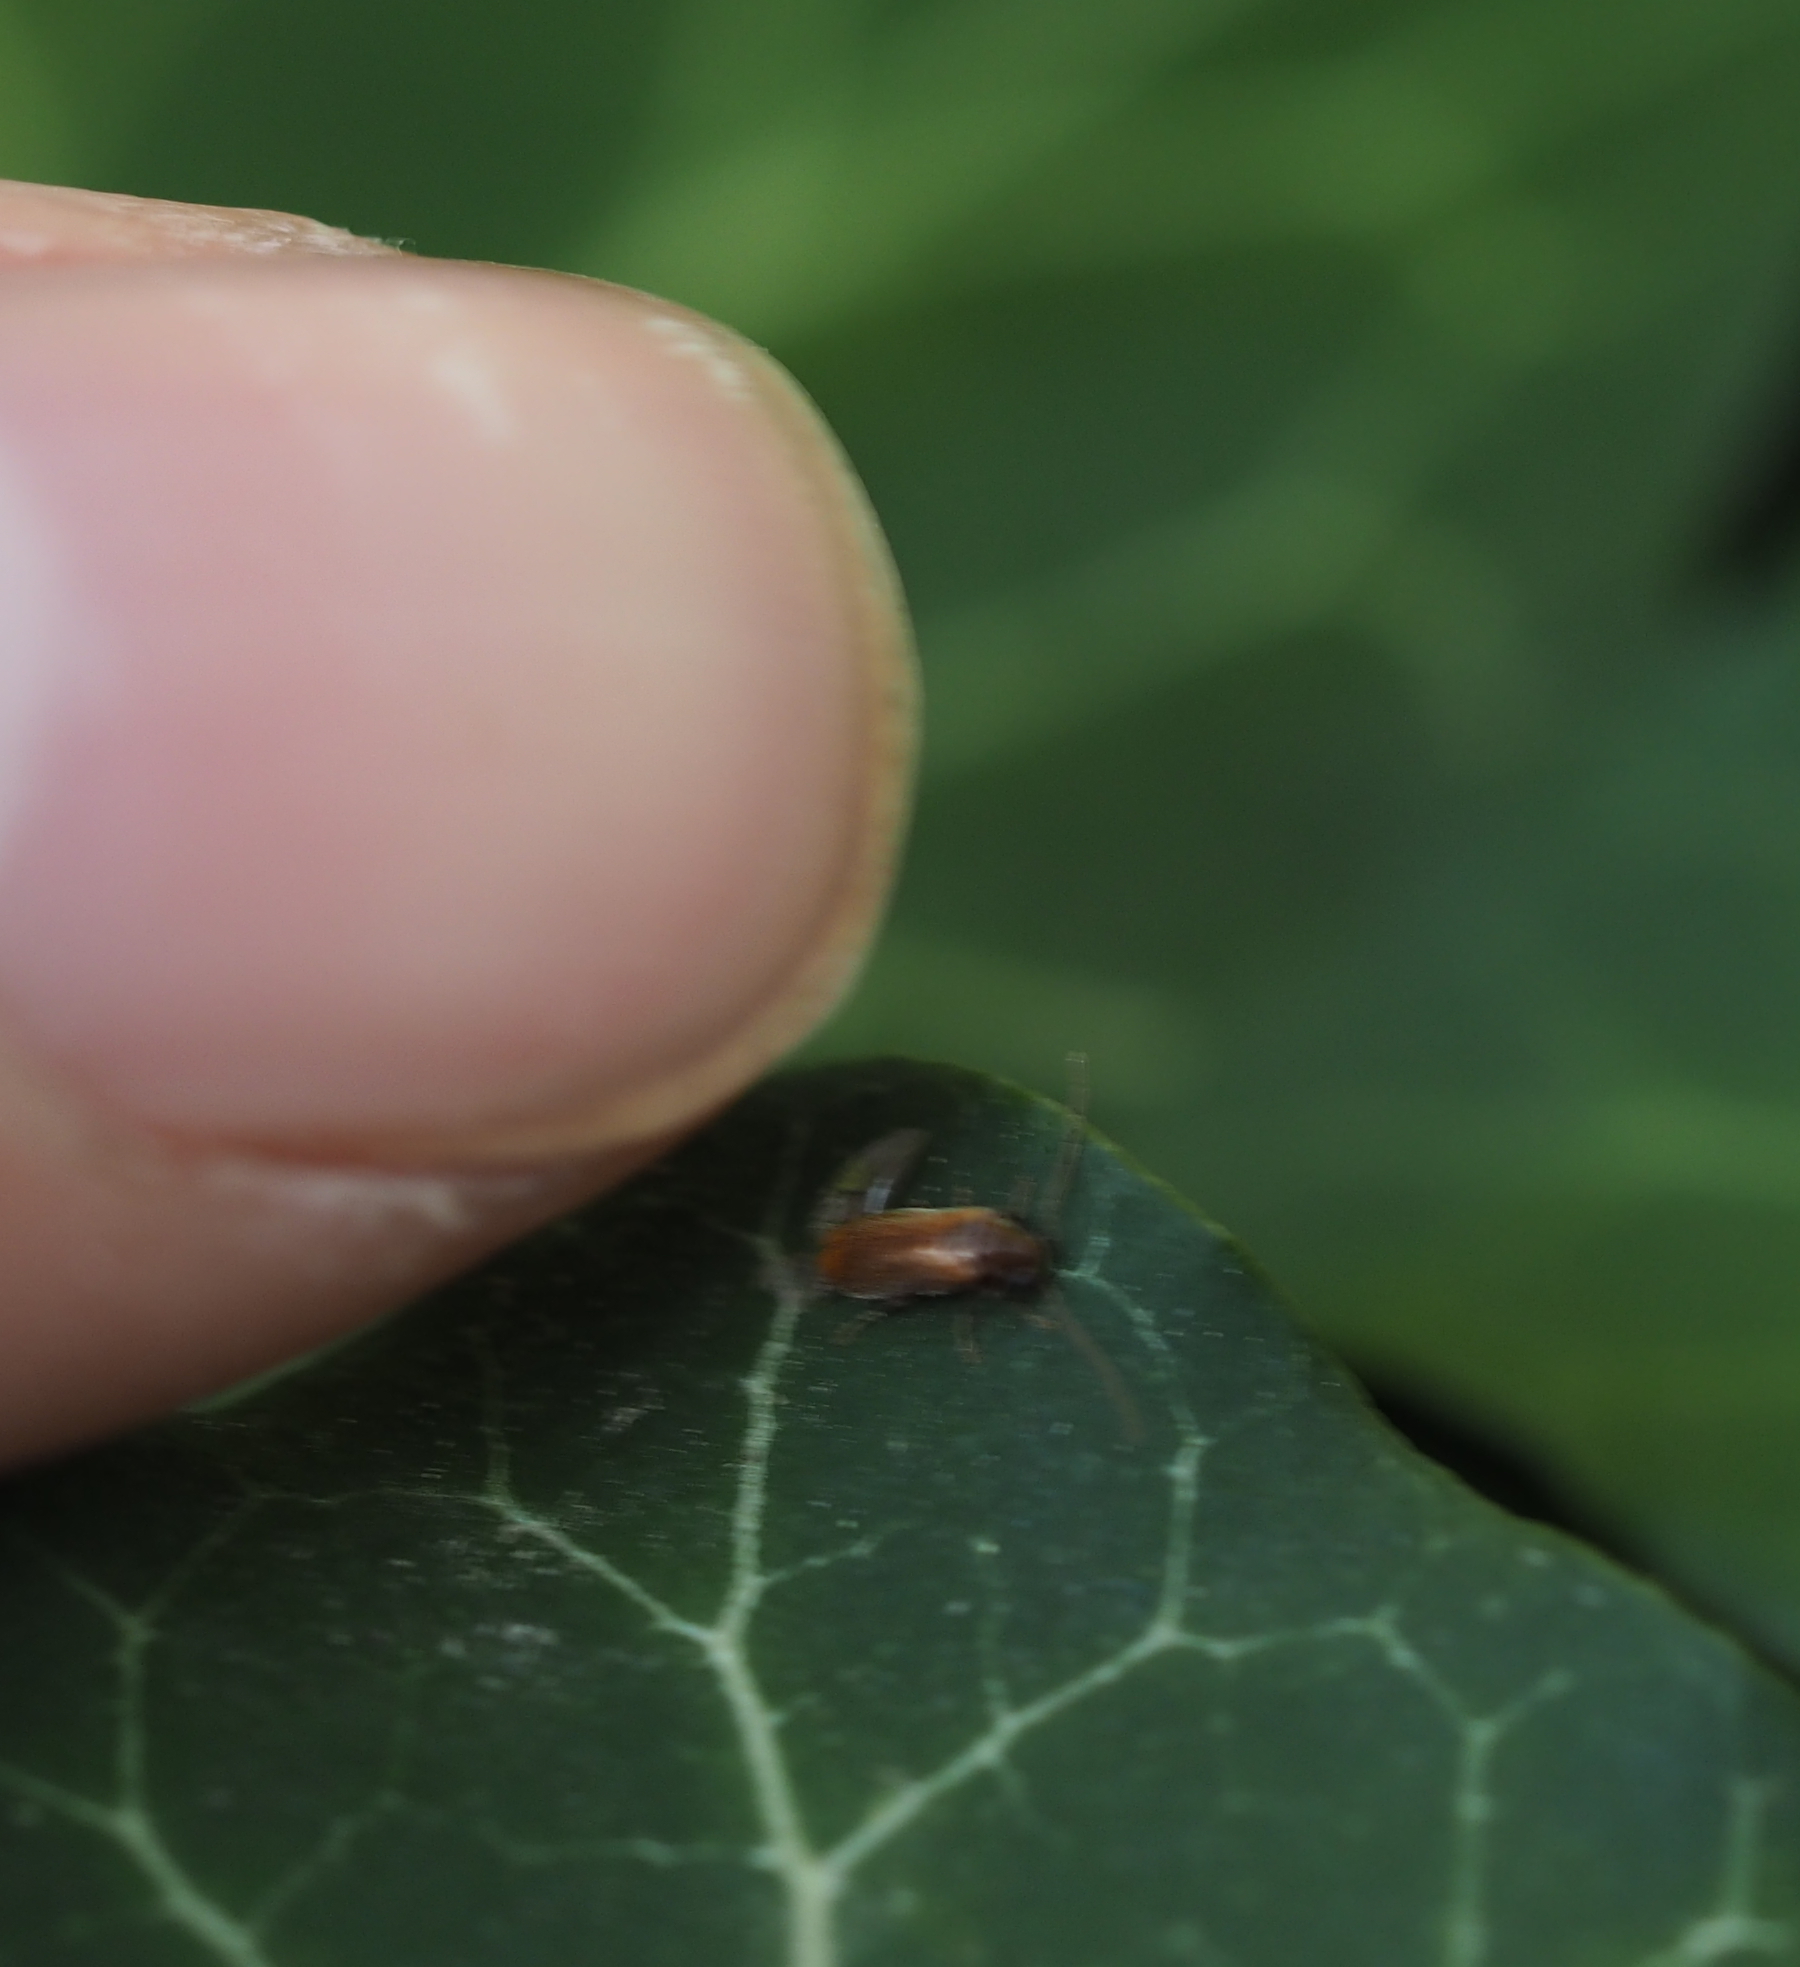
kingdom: Animalia
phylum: Arthropoda
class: Insecta
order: Coleoptera
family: Anobiidae
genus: Ernobius
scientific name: Ernobius abietinus
